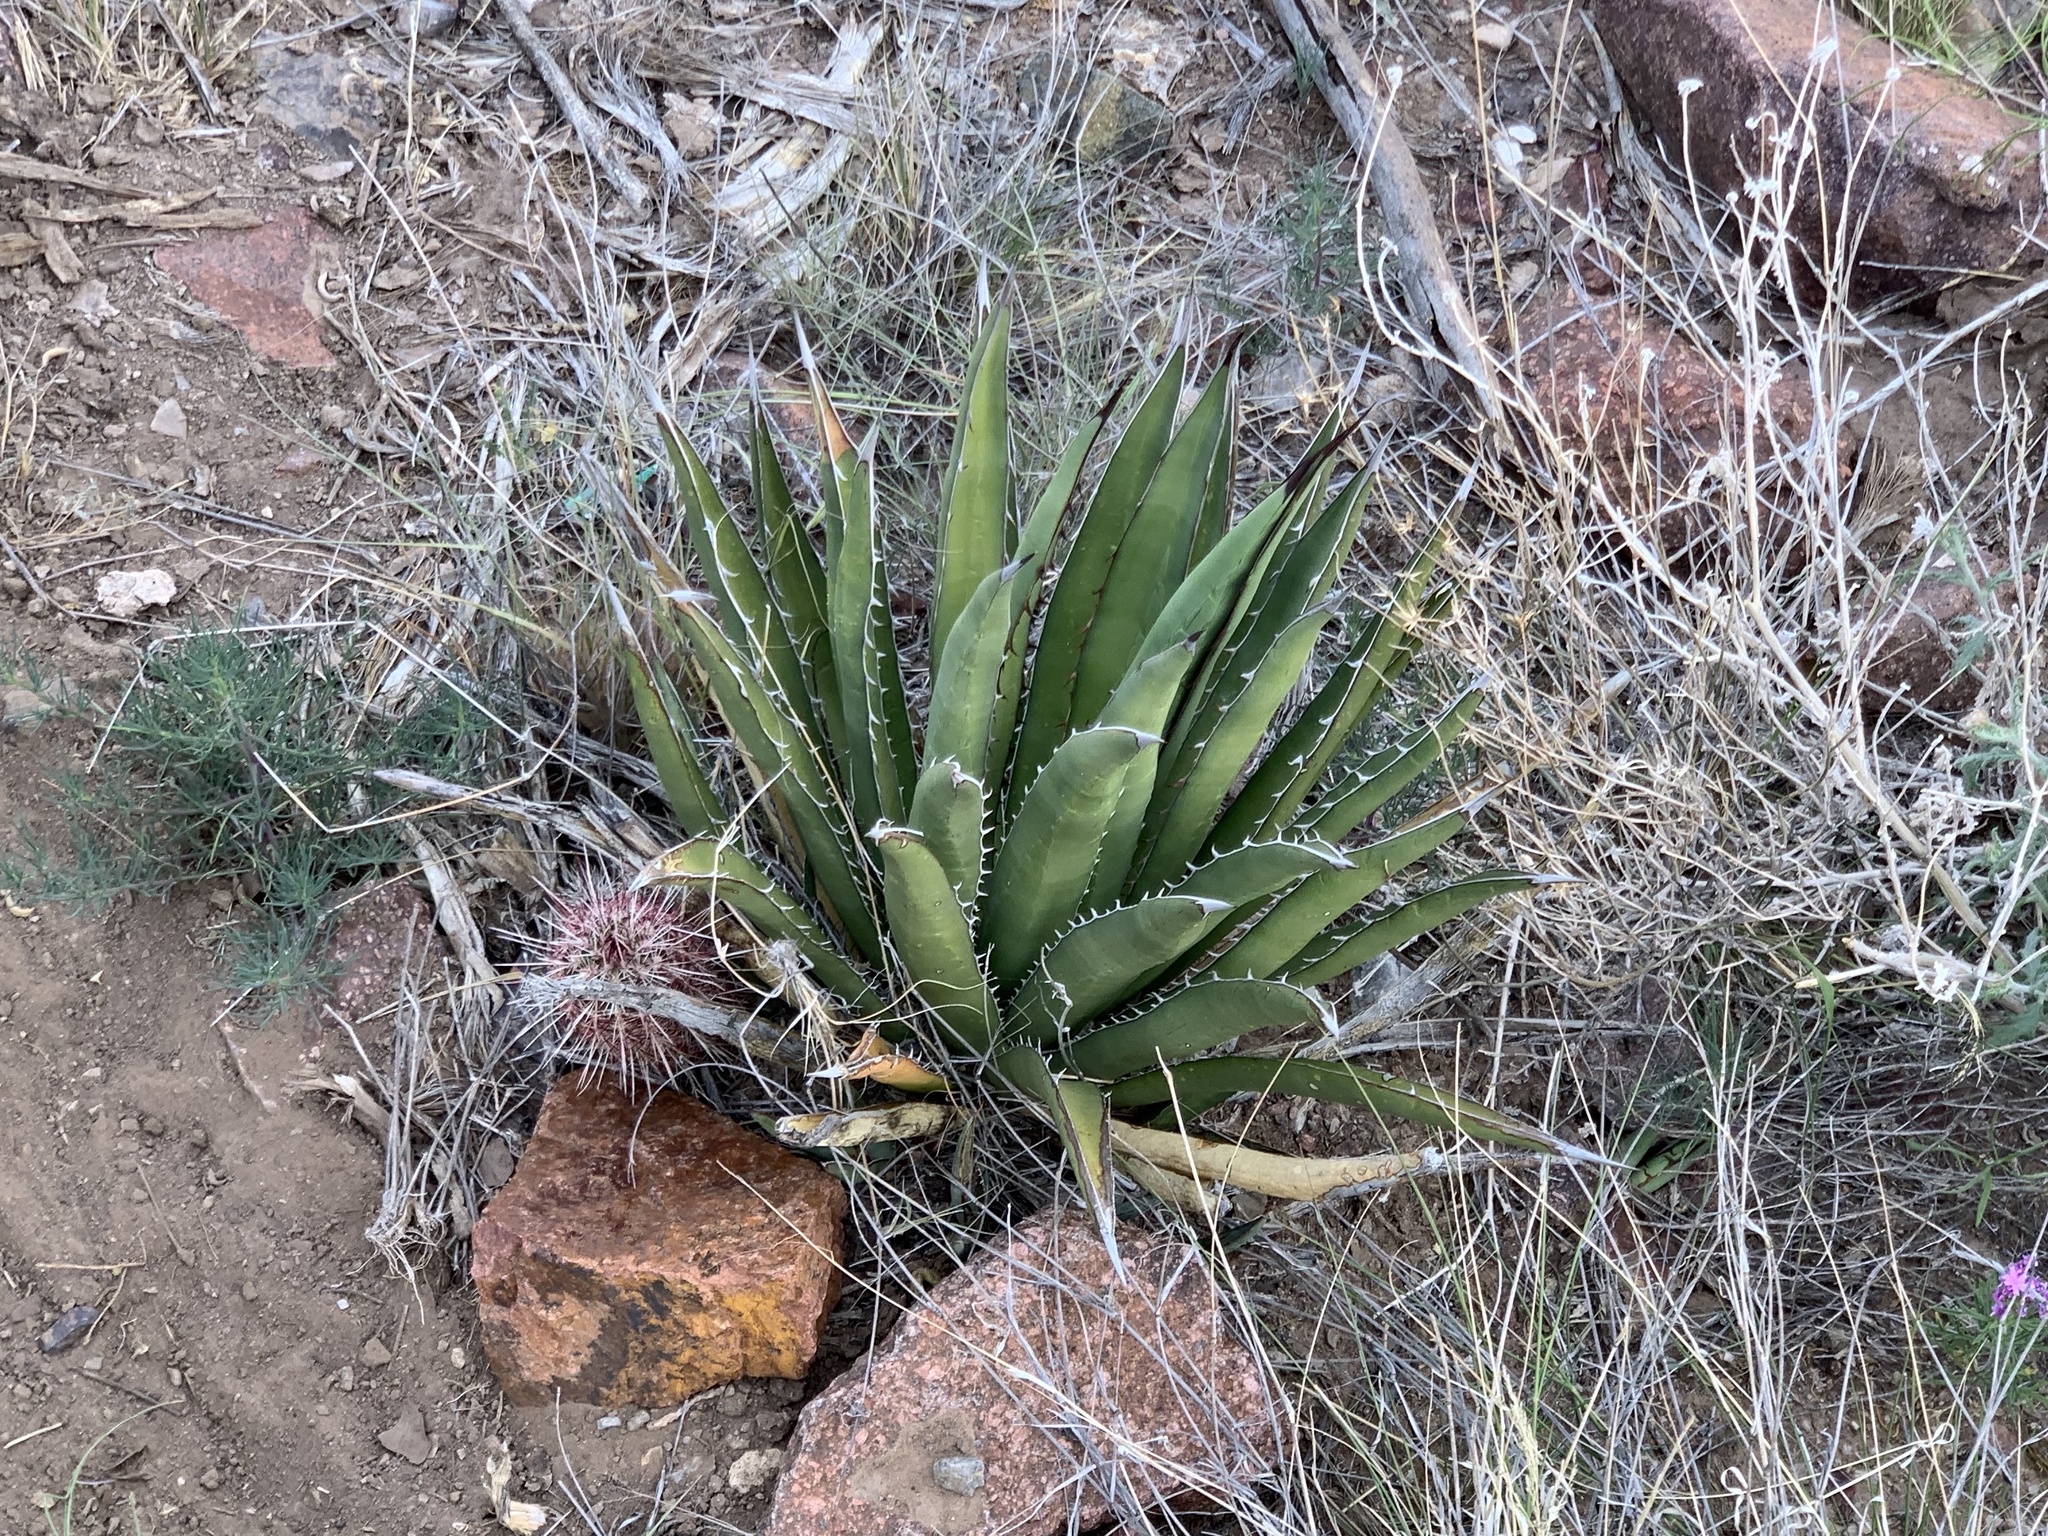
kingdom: Plantae
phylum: Tracheophyta
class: Liliopsida
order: Asparagales
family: Asparagaceae
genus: Agave
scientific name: Agave lechuguilla
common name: Lecheguilla agave
